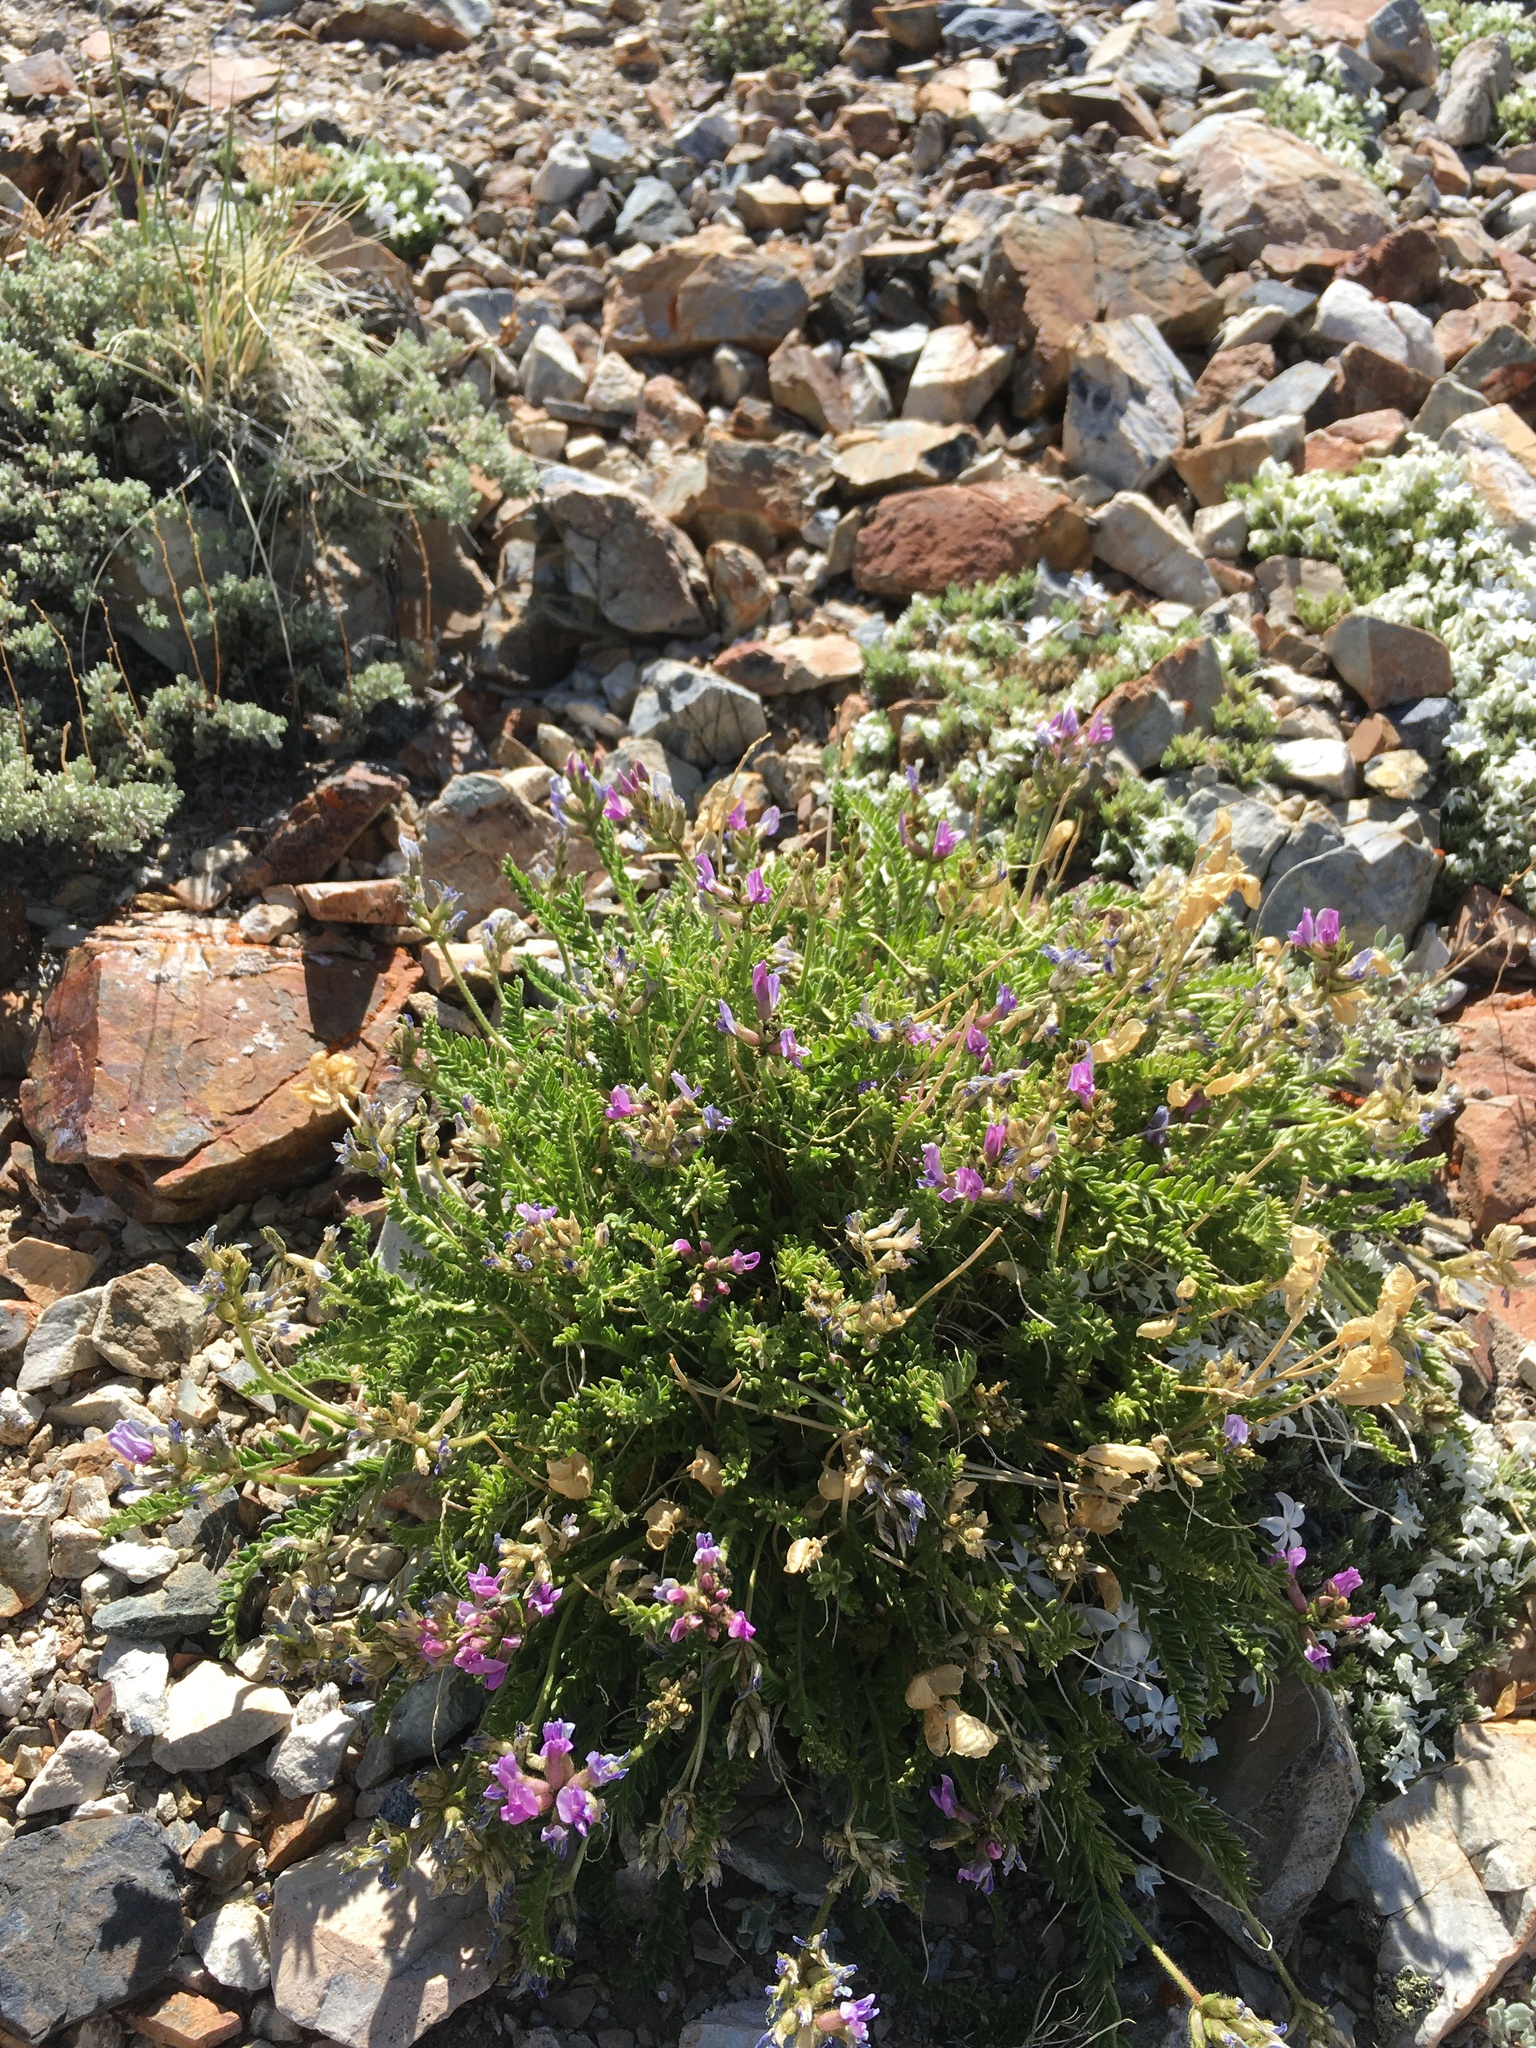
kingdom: Plantae
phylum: Tracheophyta
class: Magnoliopsida
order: Fabales
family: Fabaceae
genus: Oxytropis
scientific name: Oxytropis borealis
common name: Boreal locoweed
